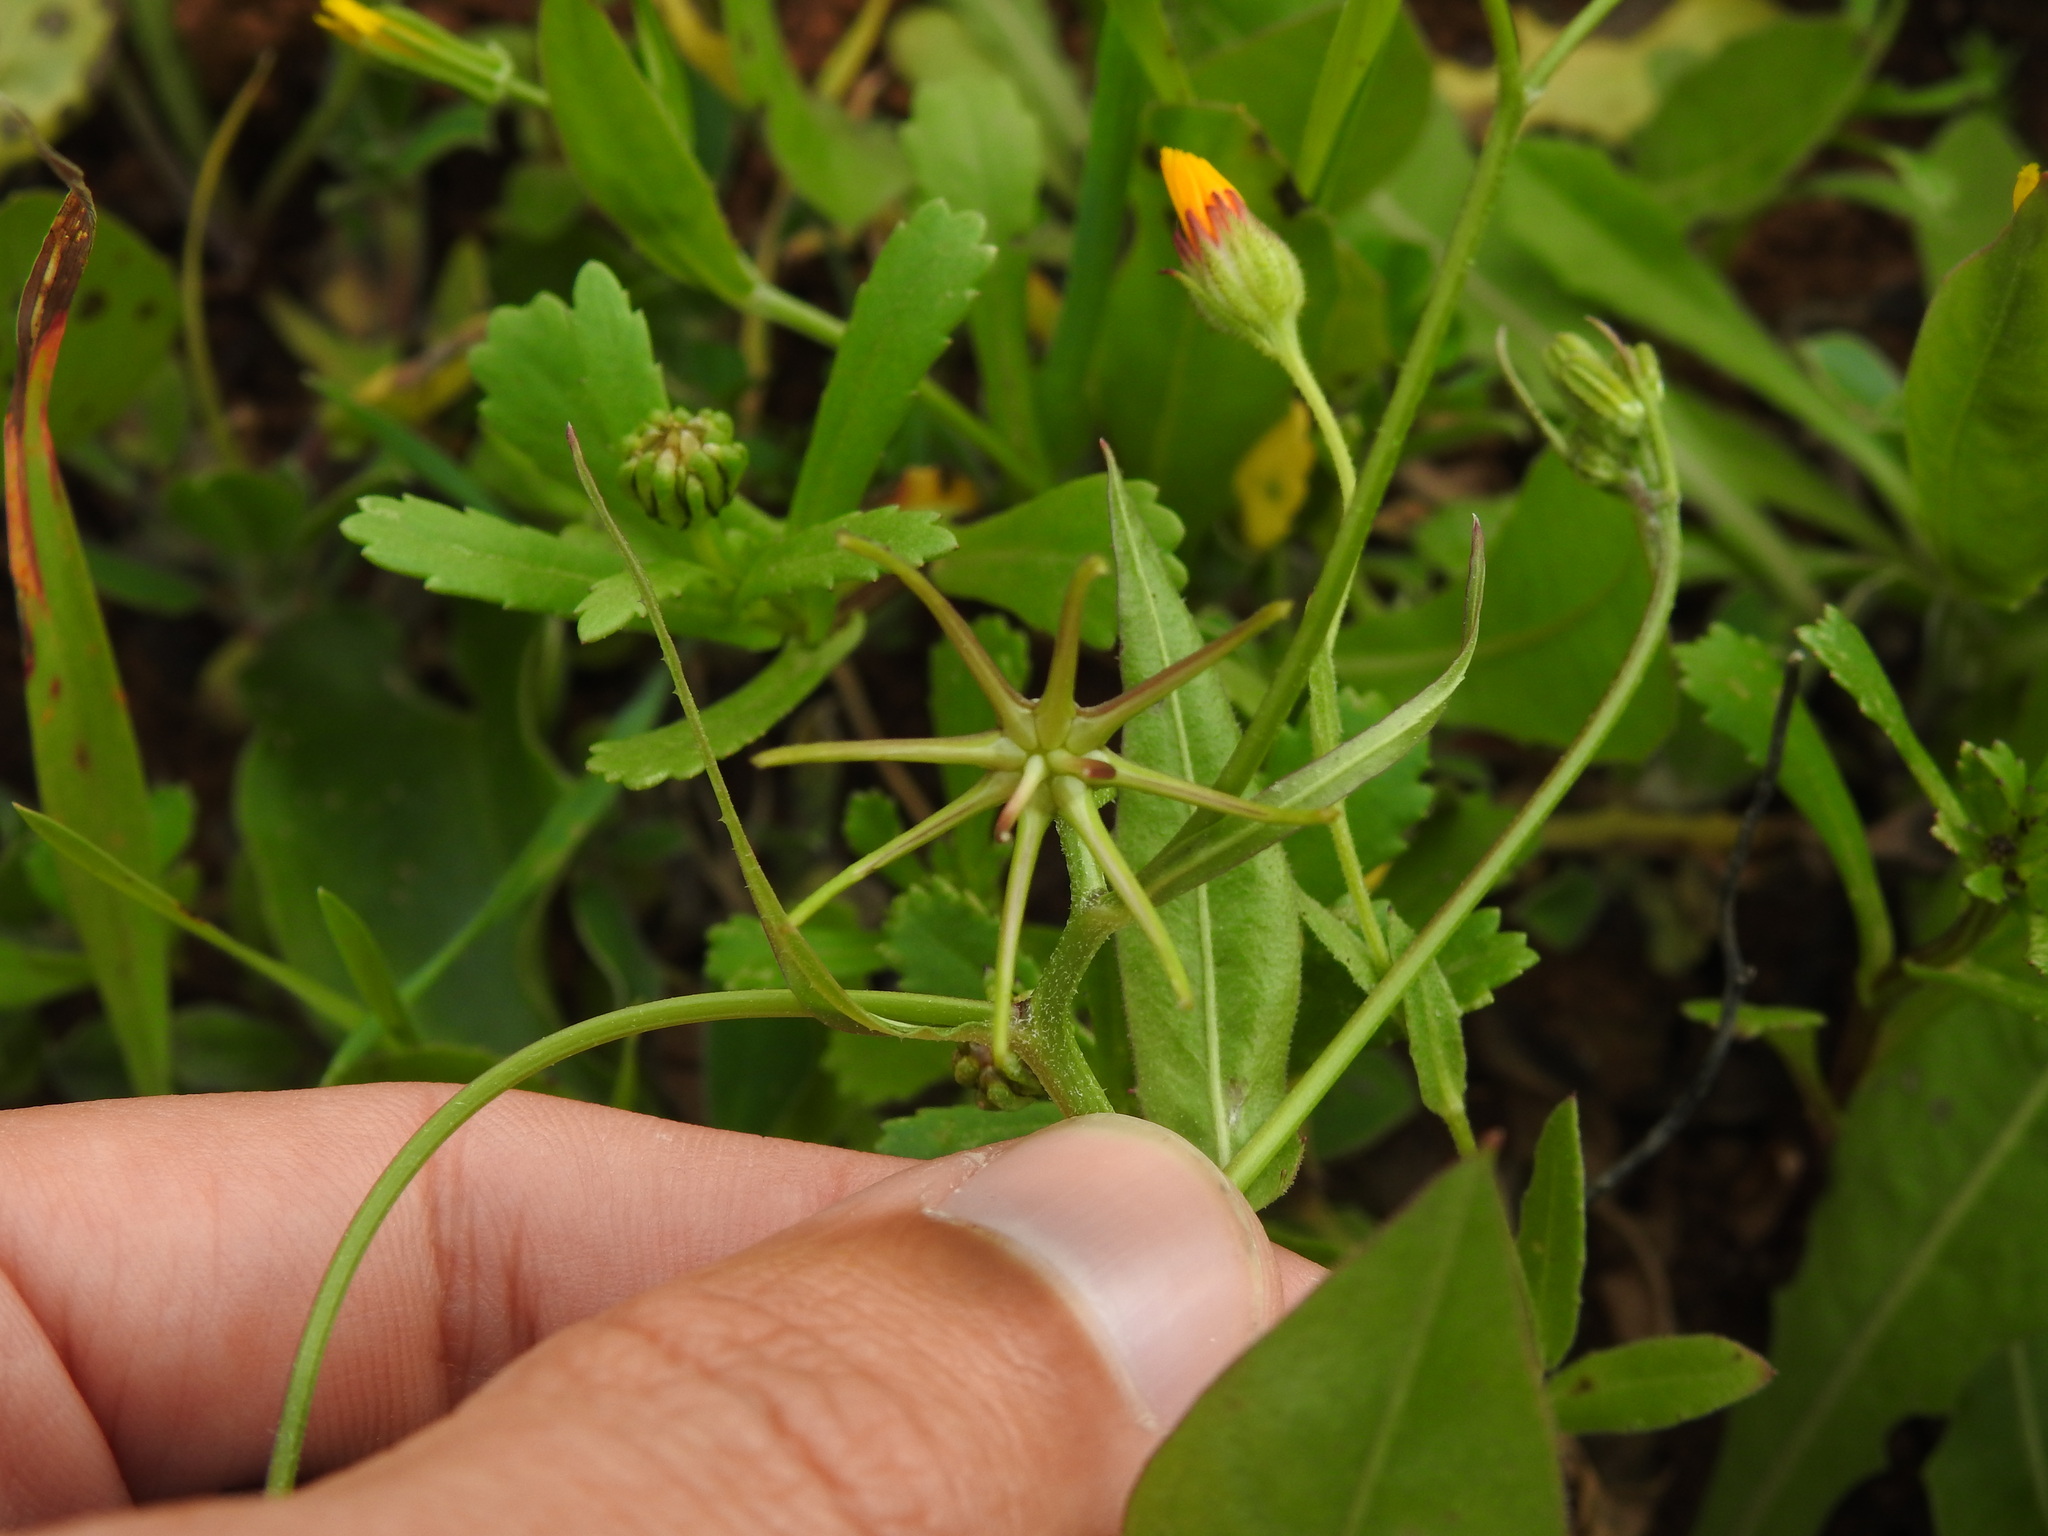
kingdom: Plantae
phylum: Tracheophyta
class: Magnoliopsida
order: Asterales
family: Asteraceae
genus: Rhagadiolus
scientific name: Rhagadiolus stellatus
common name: Star hawkbit
